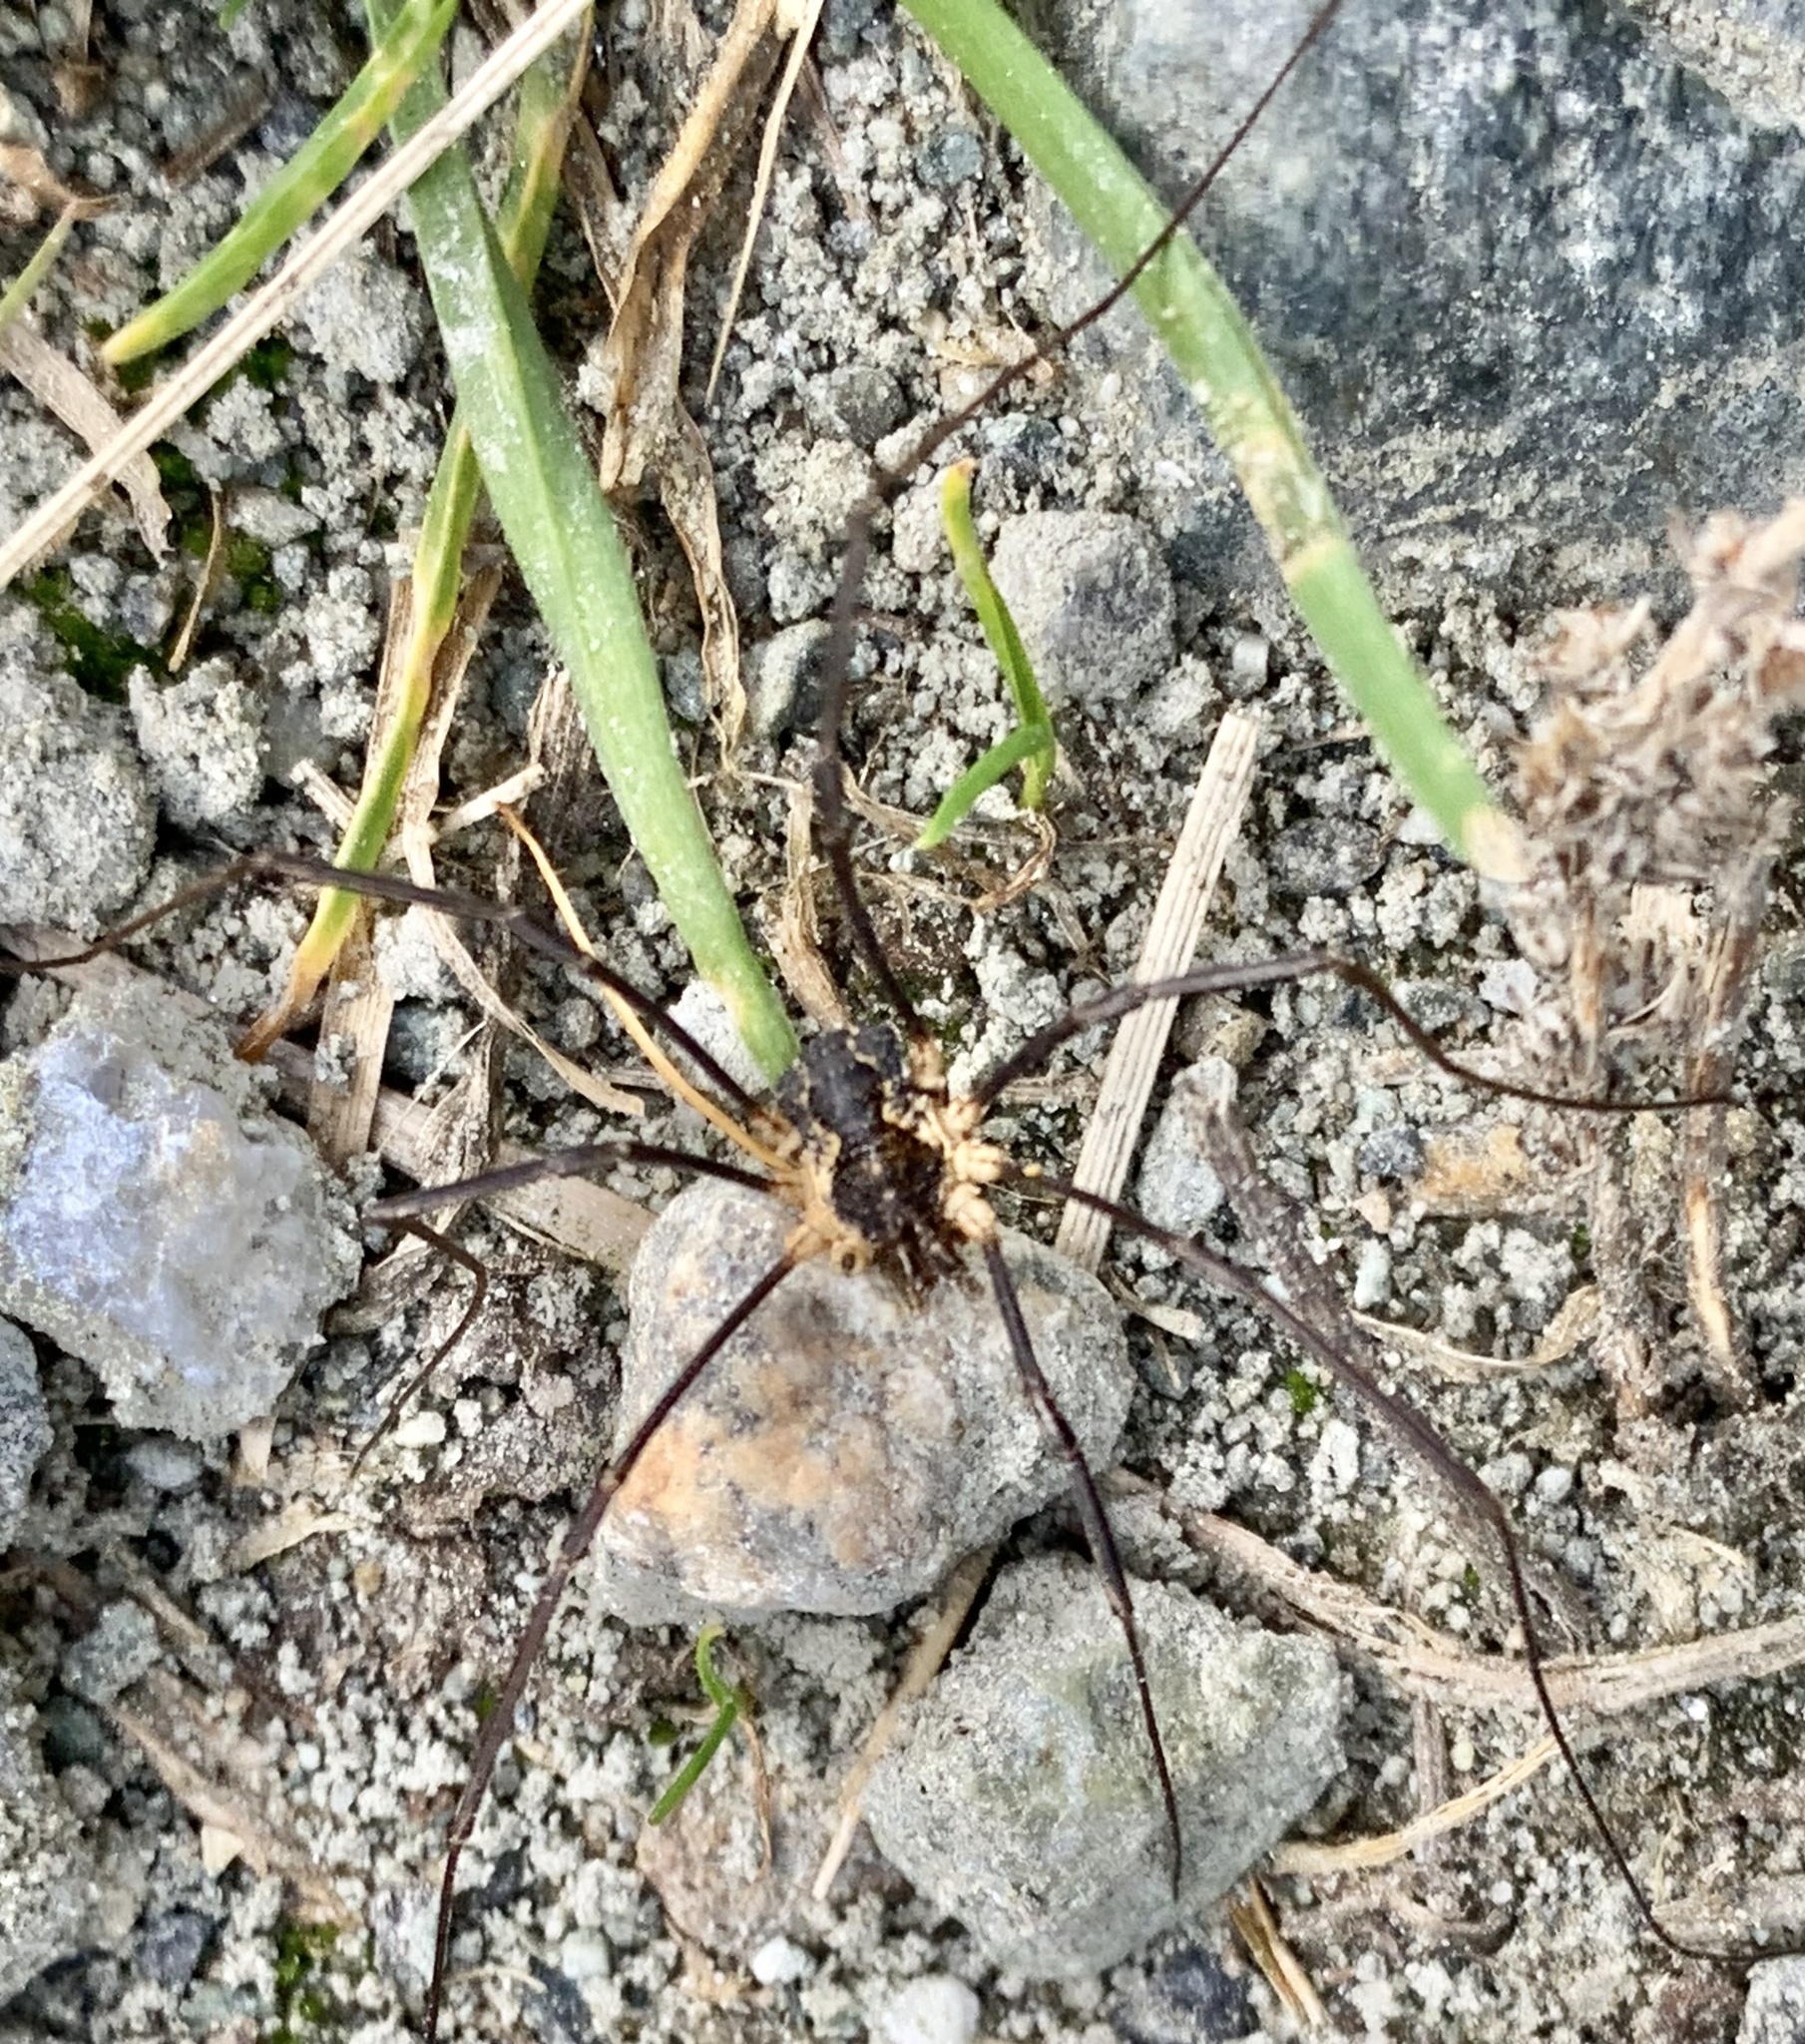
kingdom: Animalia
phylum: Arthropoda
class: Arachnida
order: Opiliones
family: Phalangiidae
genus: Mitopus
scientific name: Mitopus morio
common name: Saddleback harvestman
